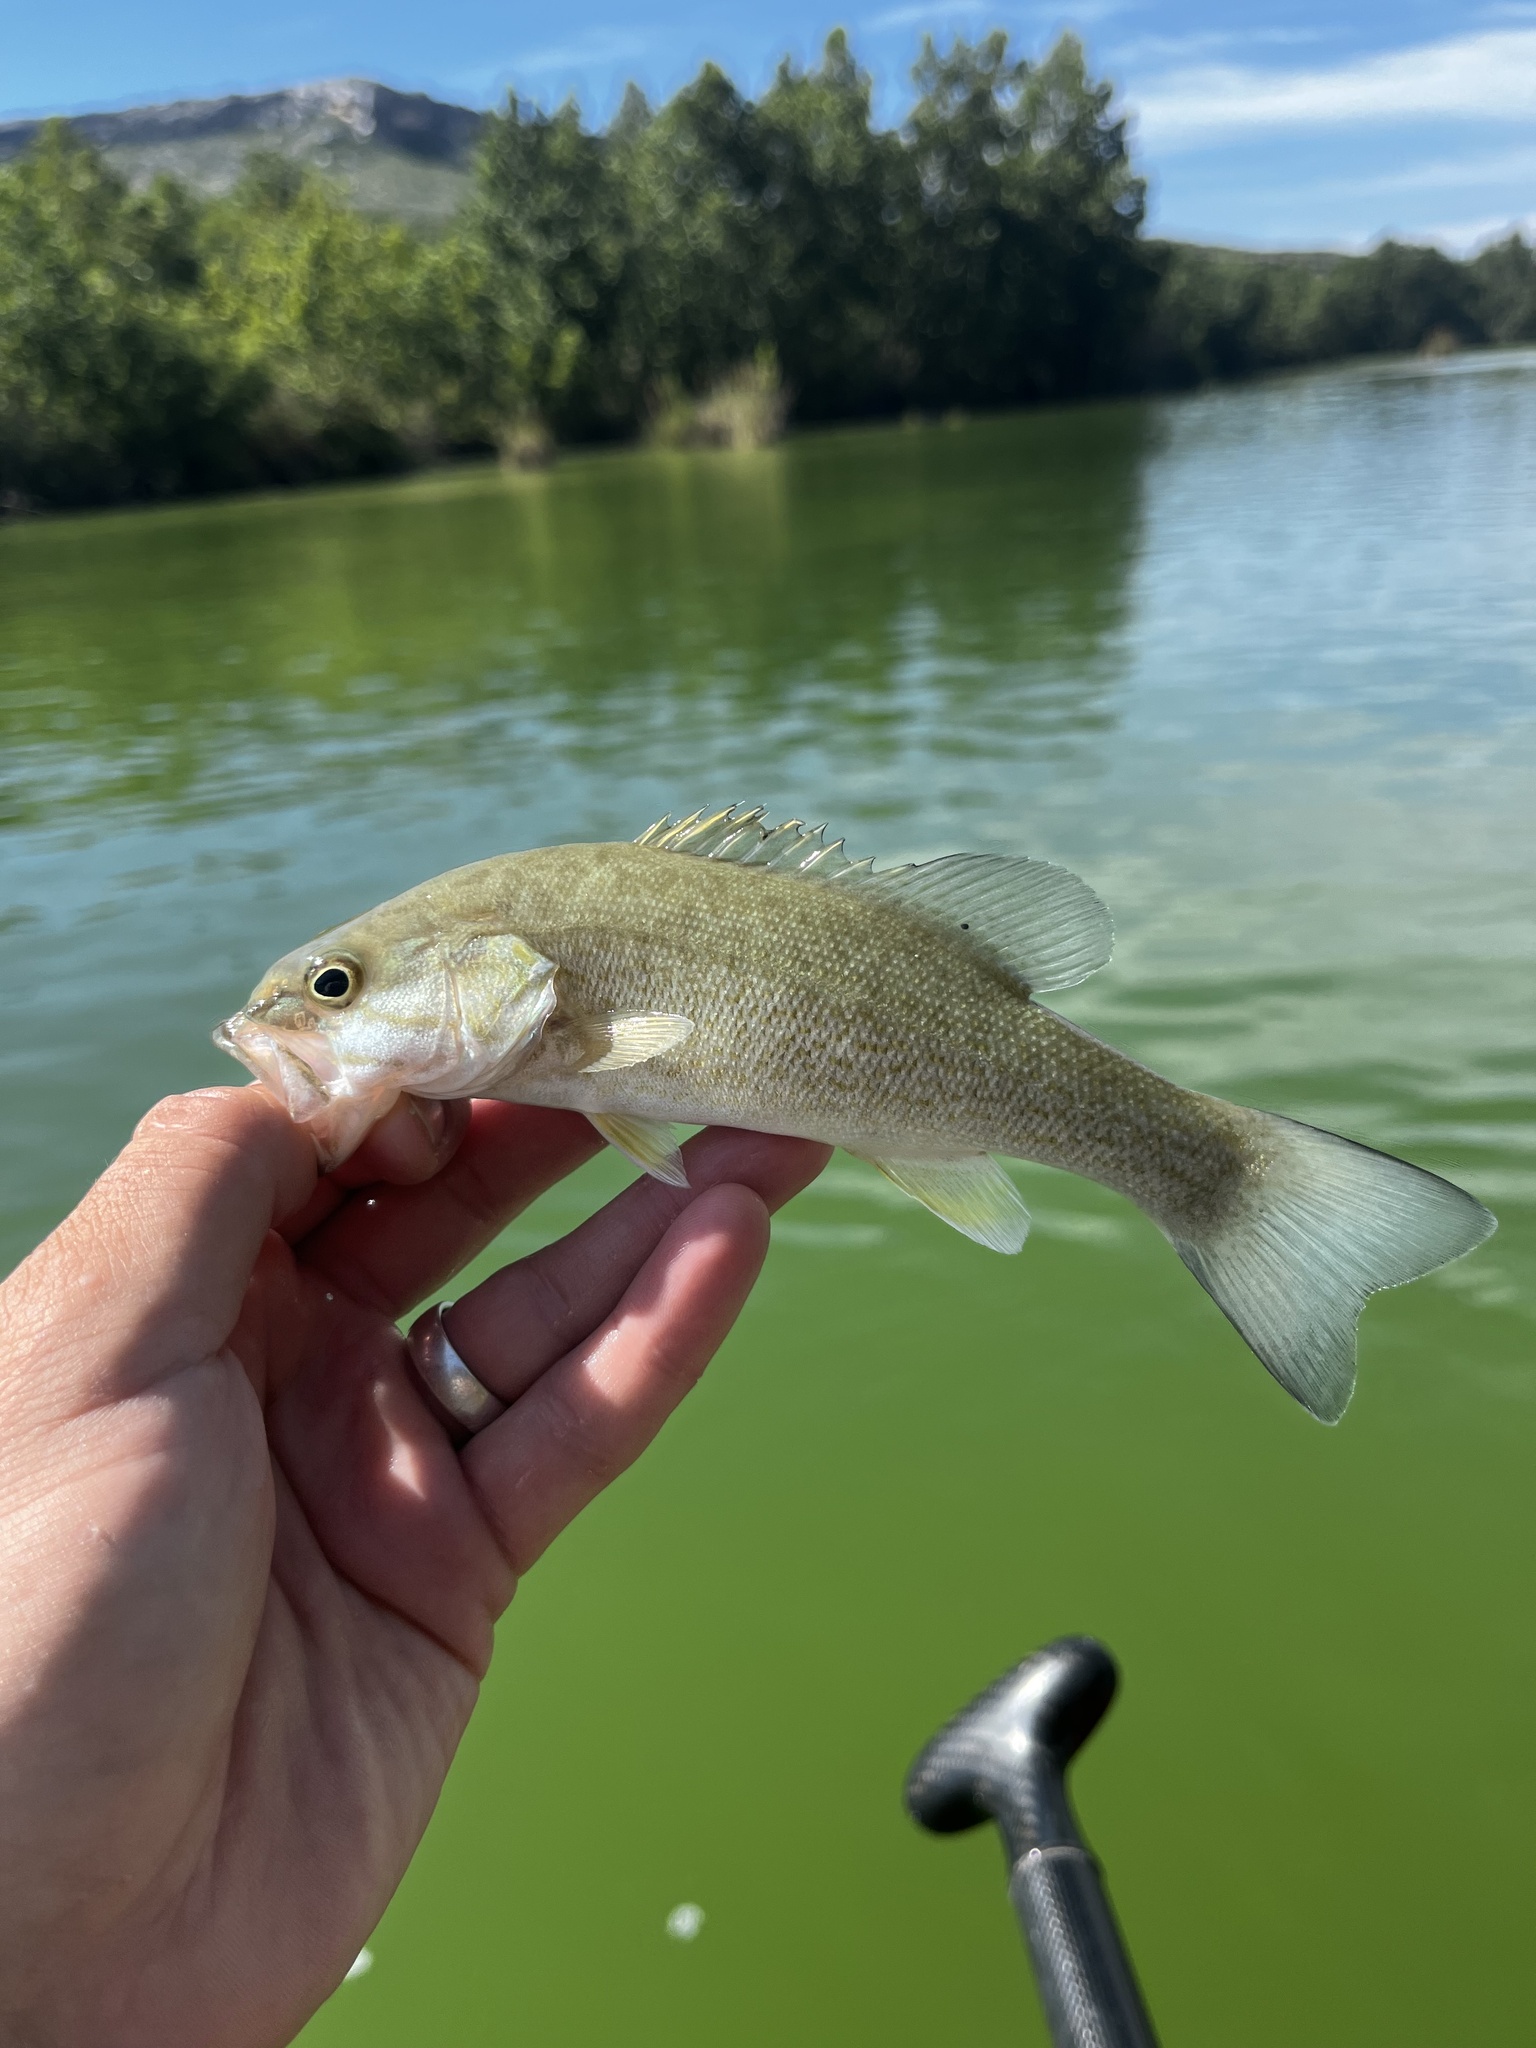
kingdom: Animalia
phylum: Chordata
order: Perciformes
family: Centrarchidae
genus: Micropterus
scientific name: Micropterus dolomieu
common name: Smallmouth bass
